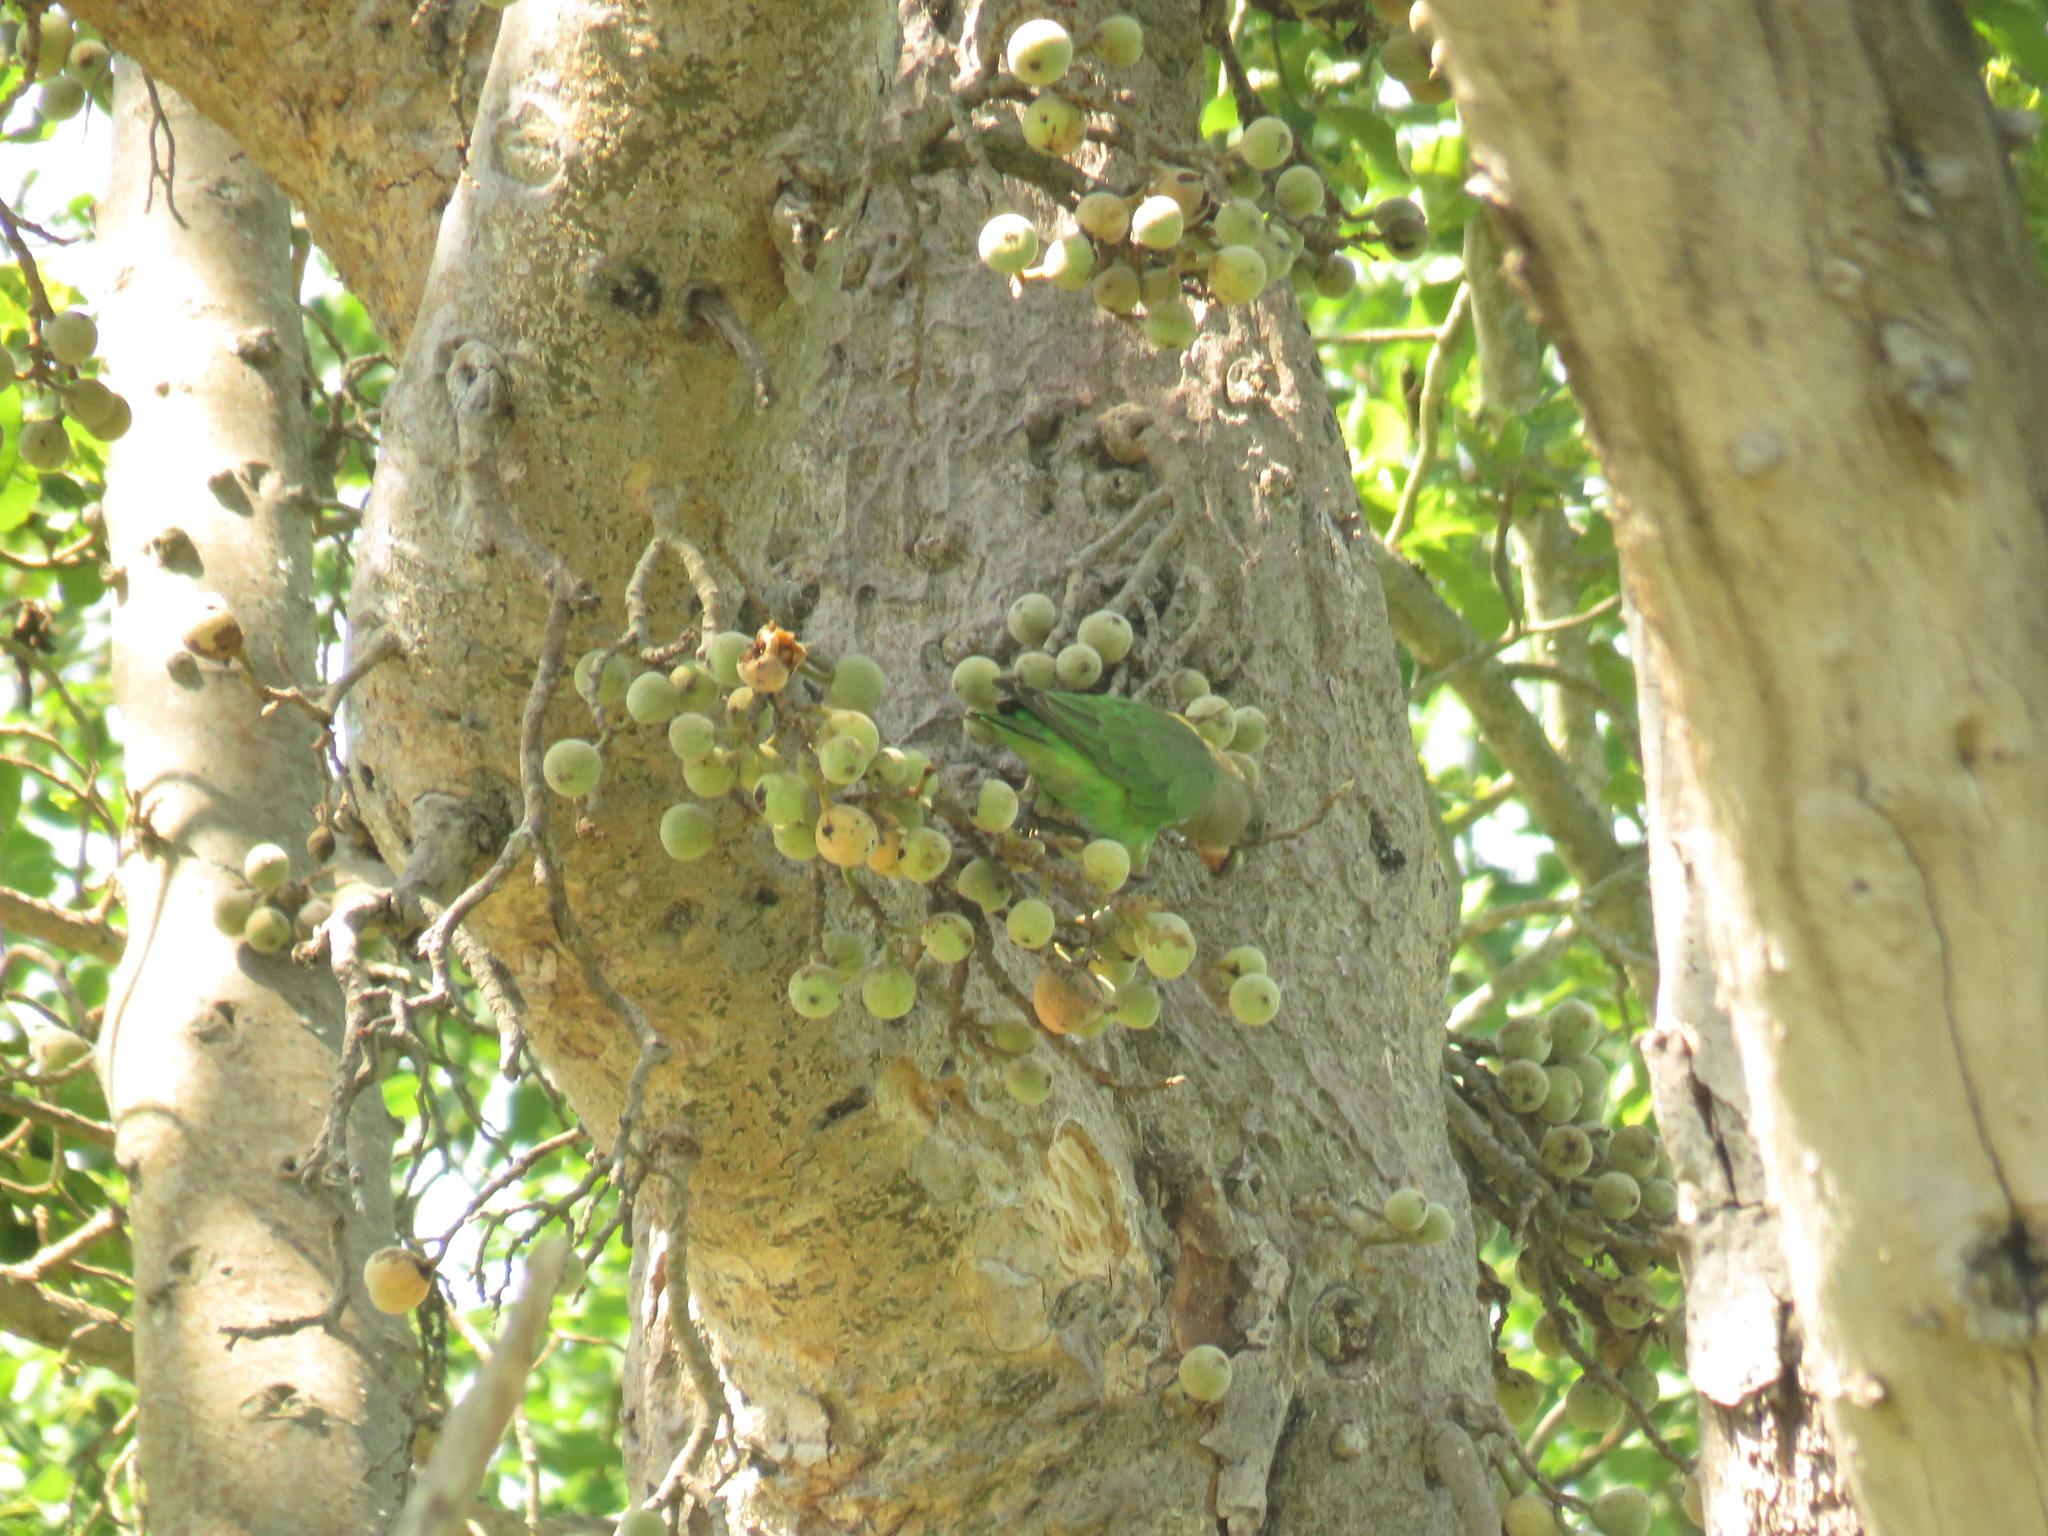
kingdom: Animalia
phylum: Chordata
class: Aves
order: Psittaciformes
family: Psittacidae
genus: Poicephalus
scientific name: Poicephalus cryptoxanthus
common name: Brown-headed parrot
